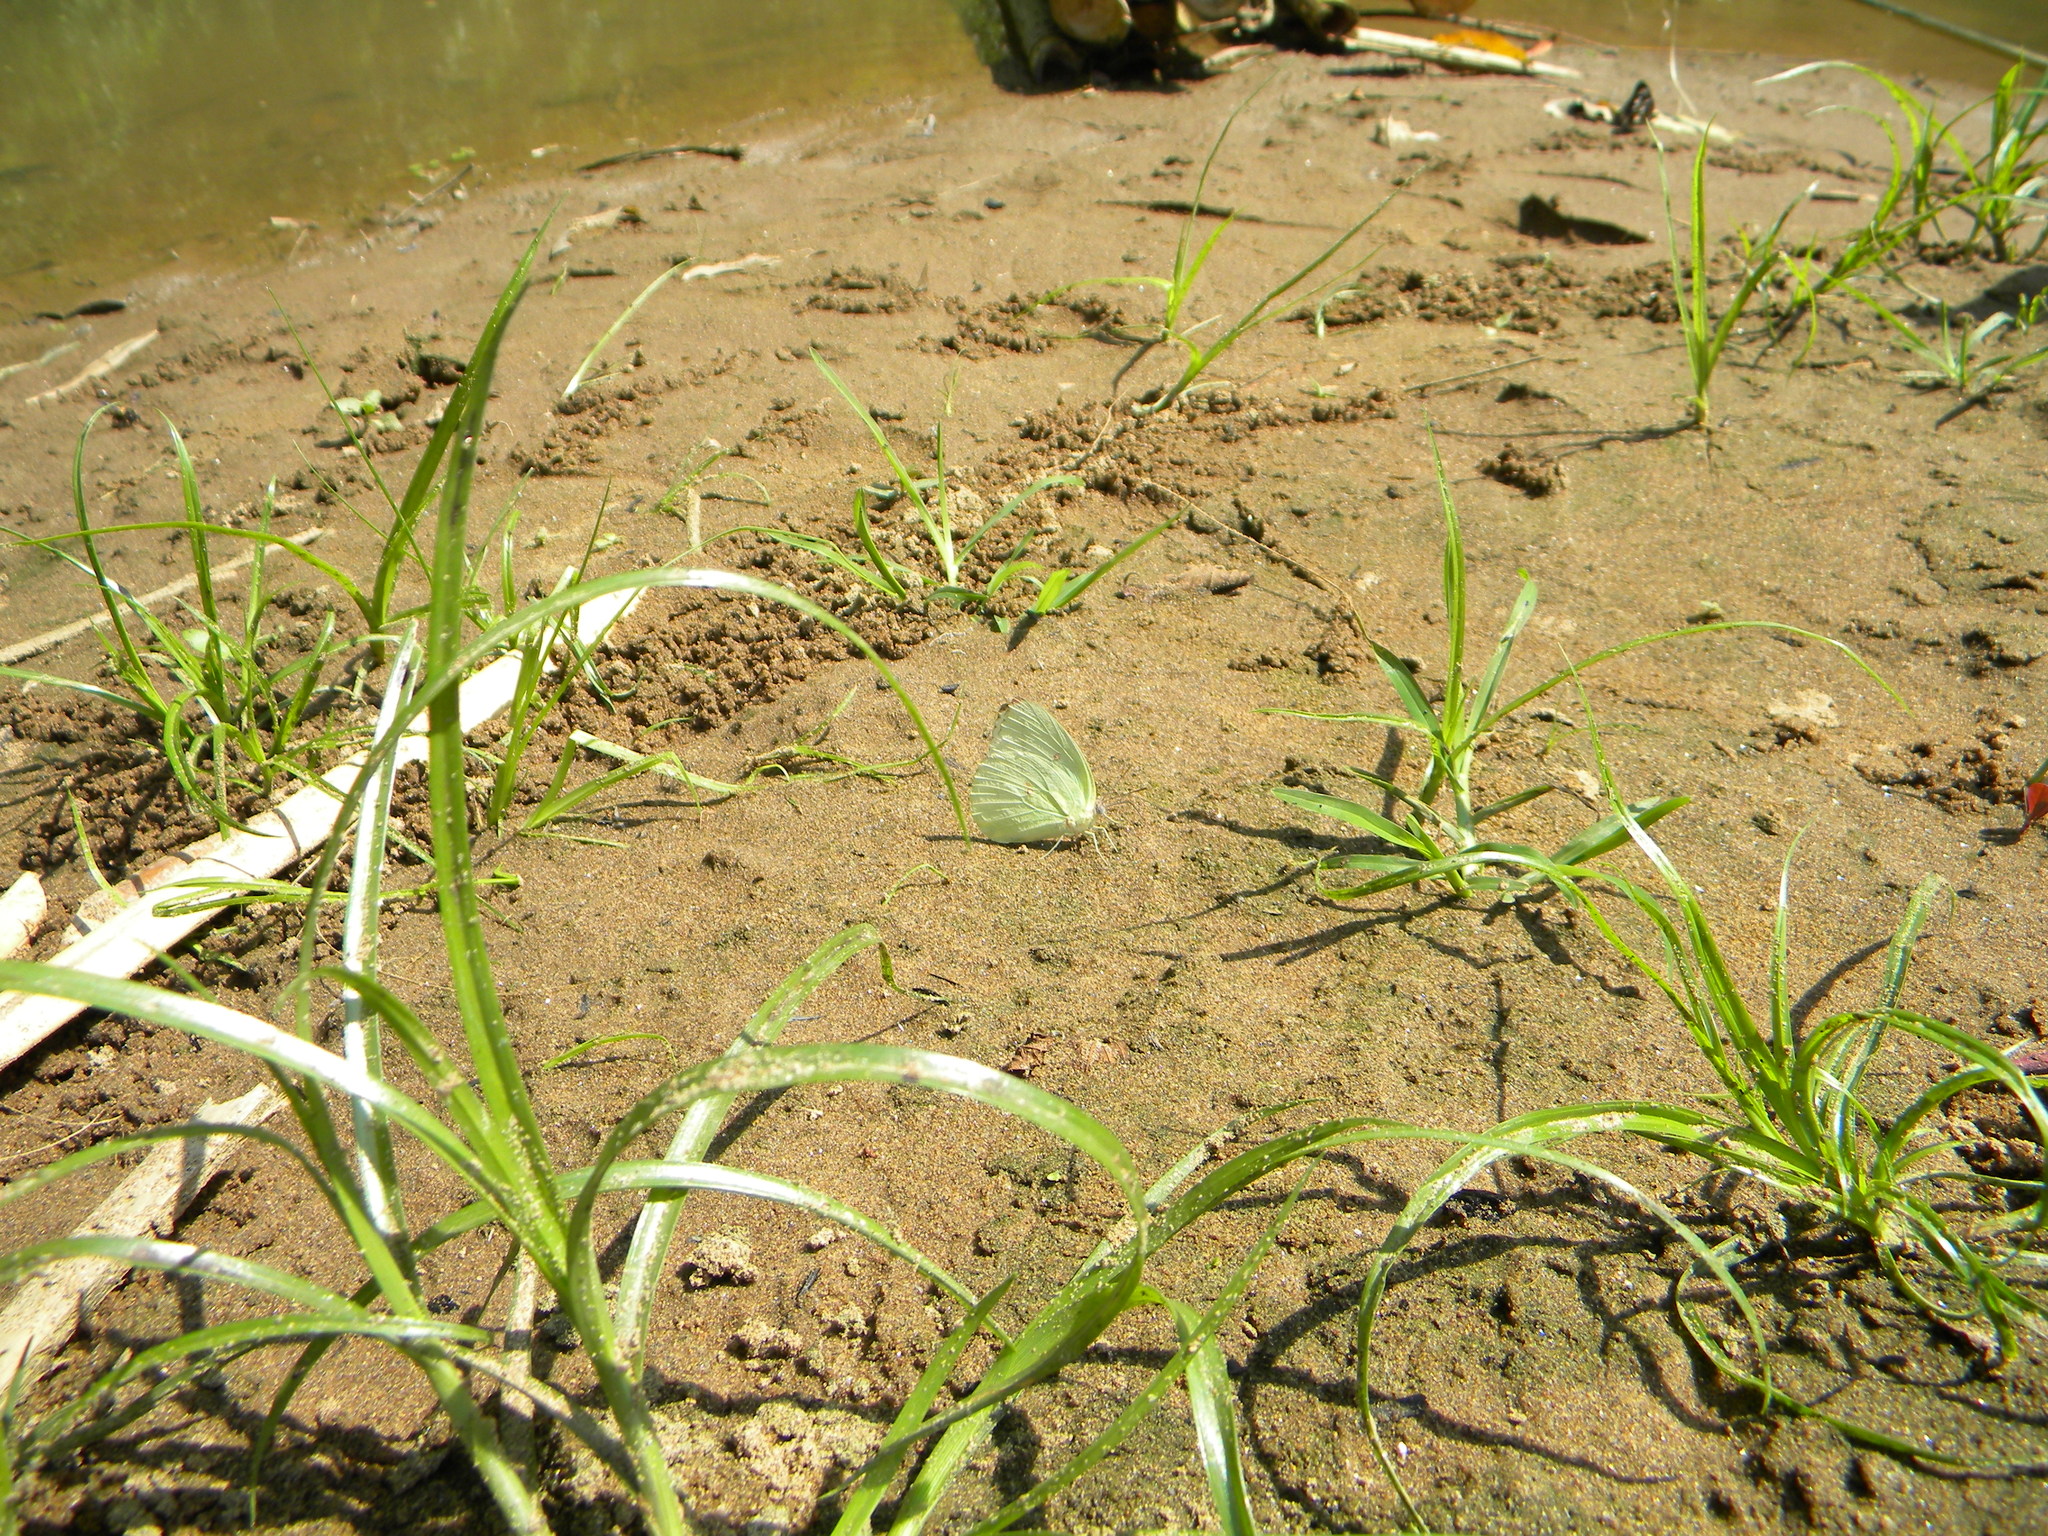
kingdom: Animalia
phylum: Arthropoda
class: Insecta
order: Lepidoptera
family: Pieridae
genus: Catopsilia
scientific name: Catopsilia pomona
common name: Common emigrant
